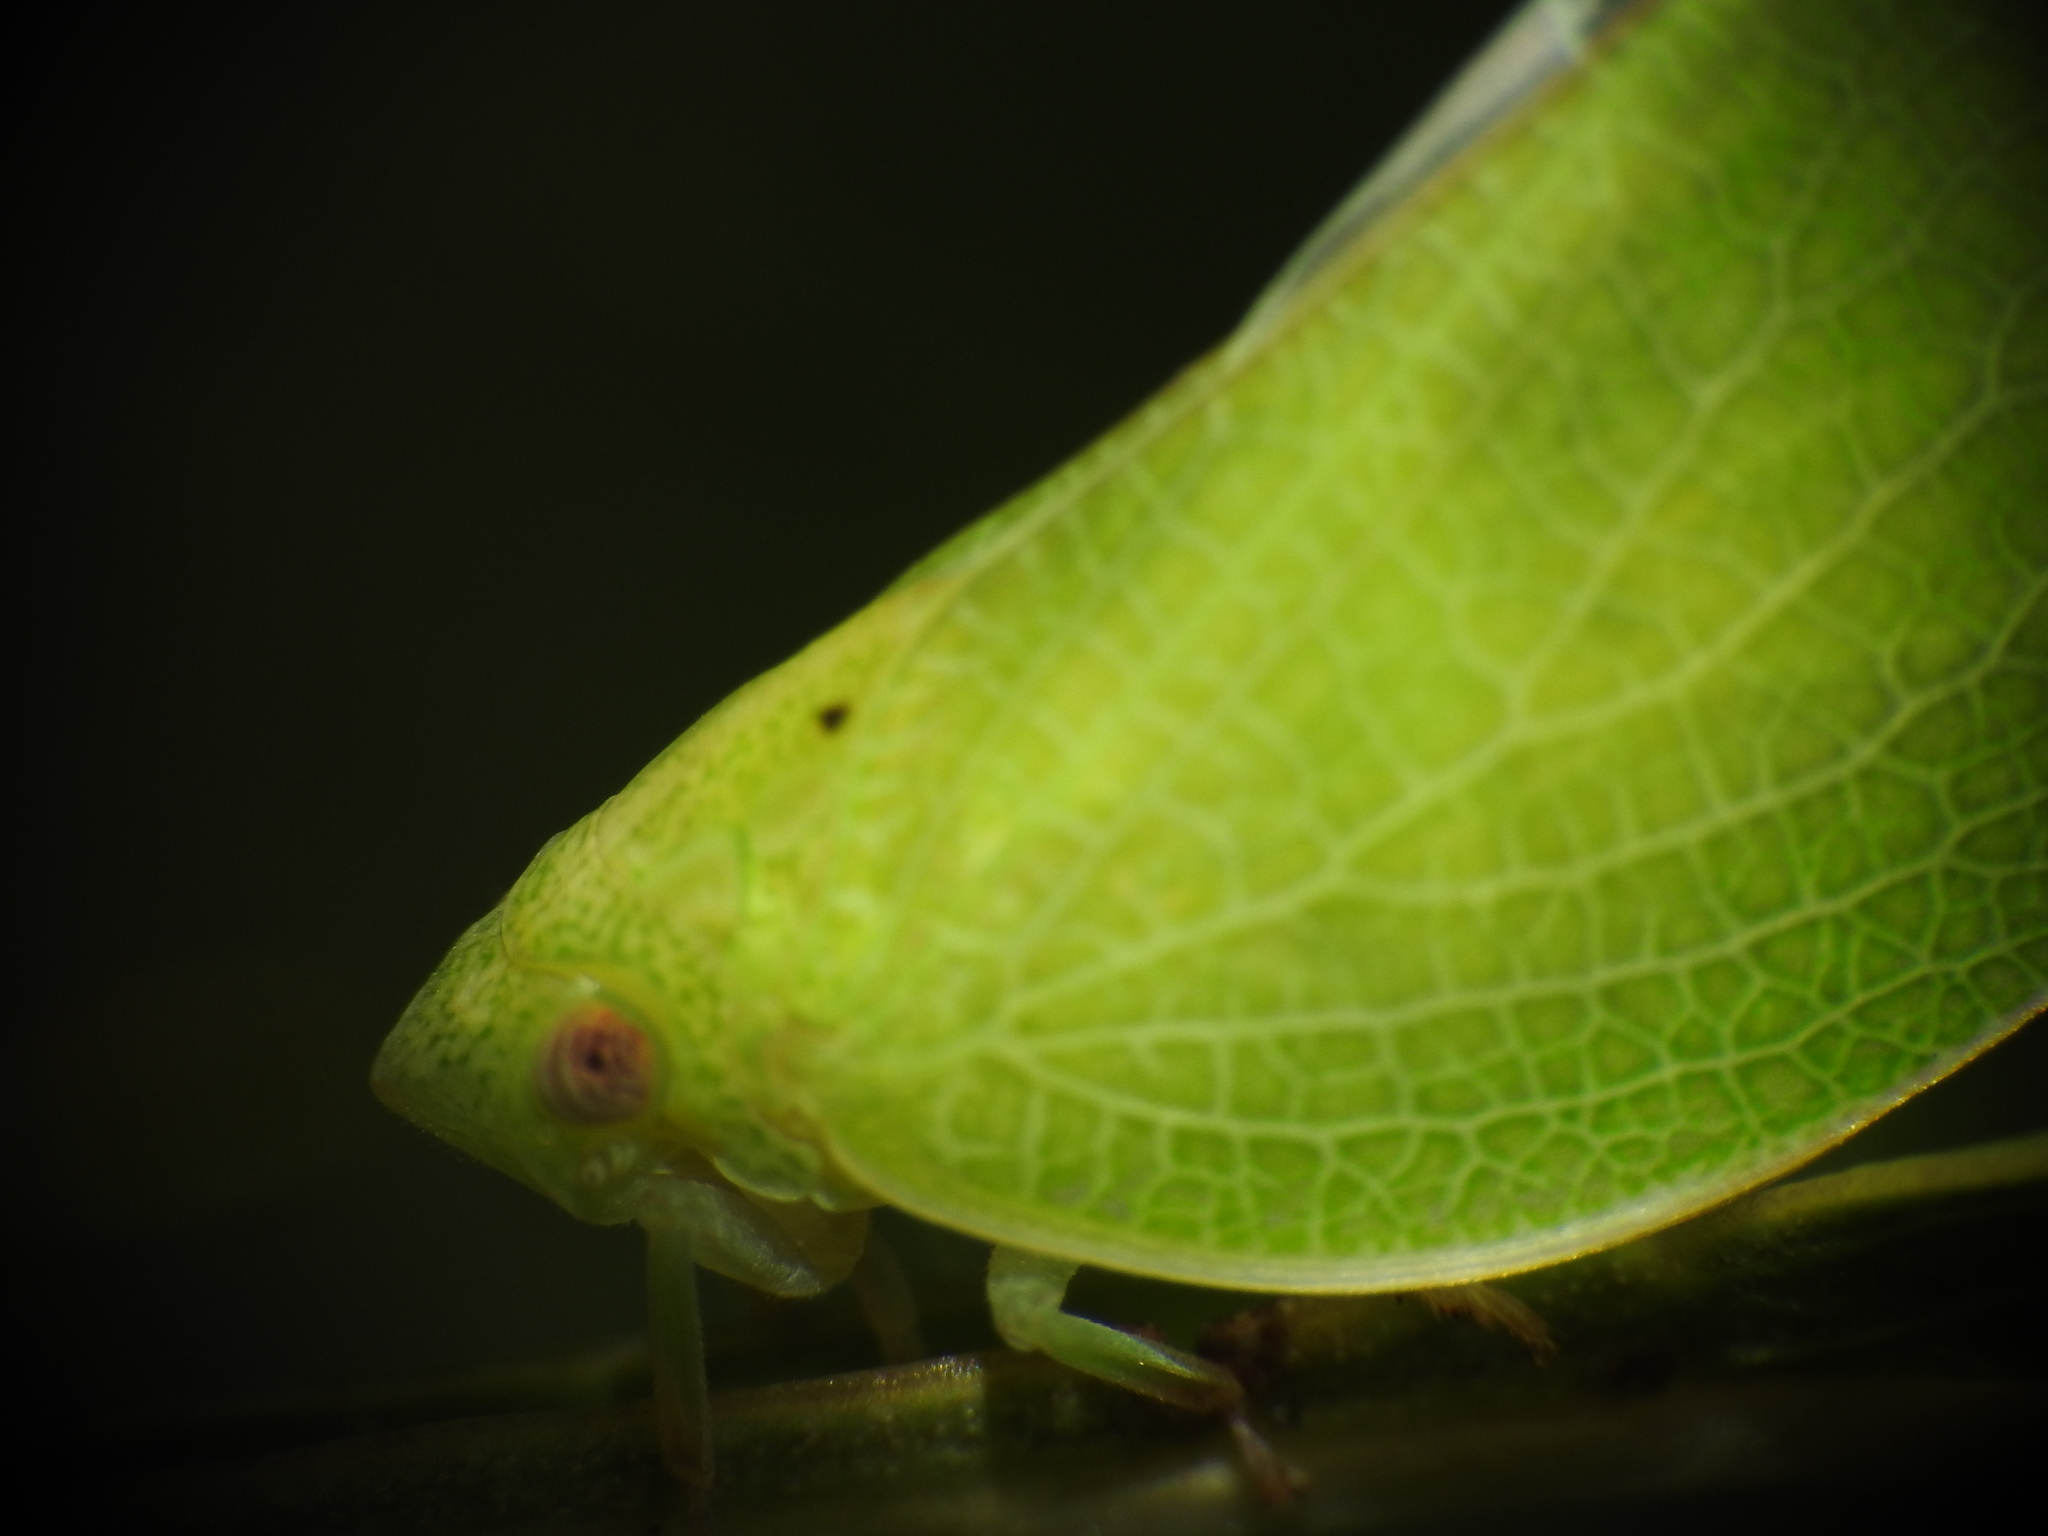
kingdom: Animalia
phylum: Arthropoda
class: Insecta
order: Hemiptera
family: Acanaloniidae
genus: Acanalonia
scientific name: Acanalonia conica
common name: Green cone-headed planthopper
